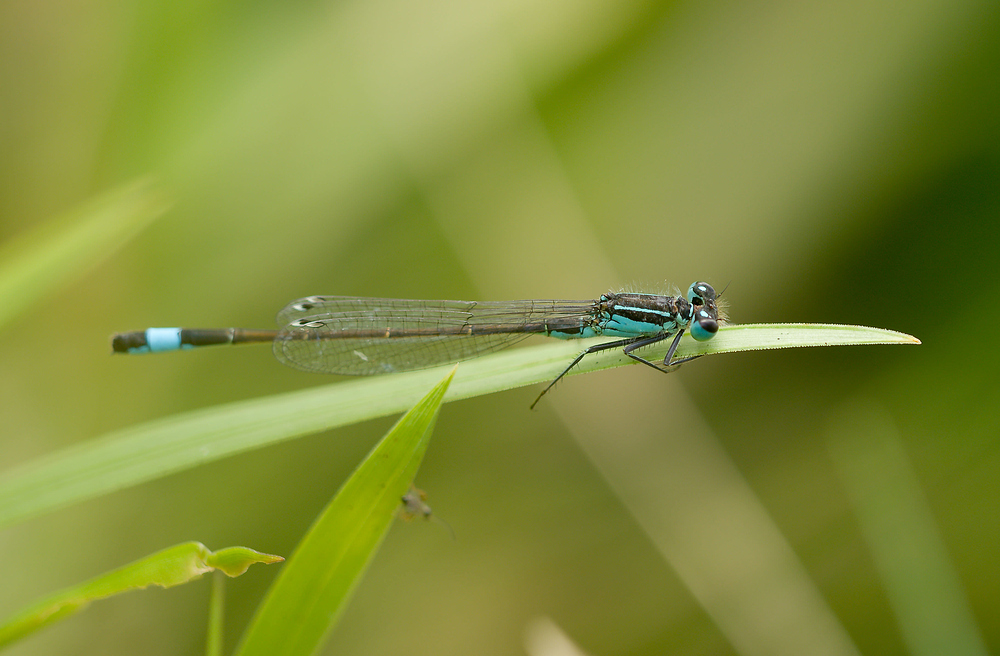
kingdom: Animalia
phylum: Arthropoda
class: Insecta
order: Odonata
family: Coenagrionidae
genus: Ischnura
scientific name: Ischnura elegans
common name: Blue-tailed damselfly
